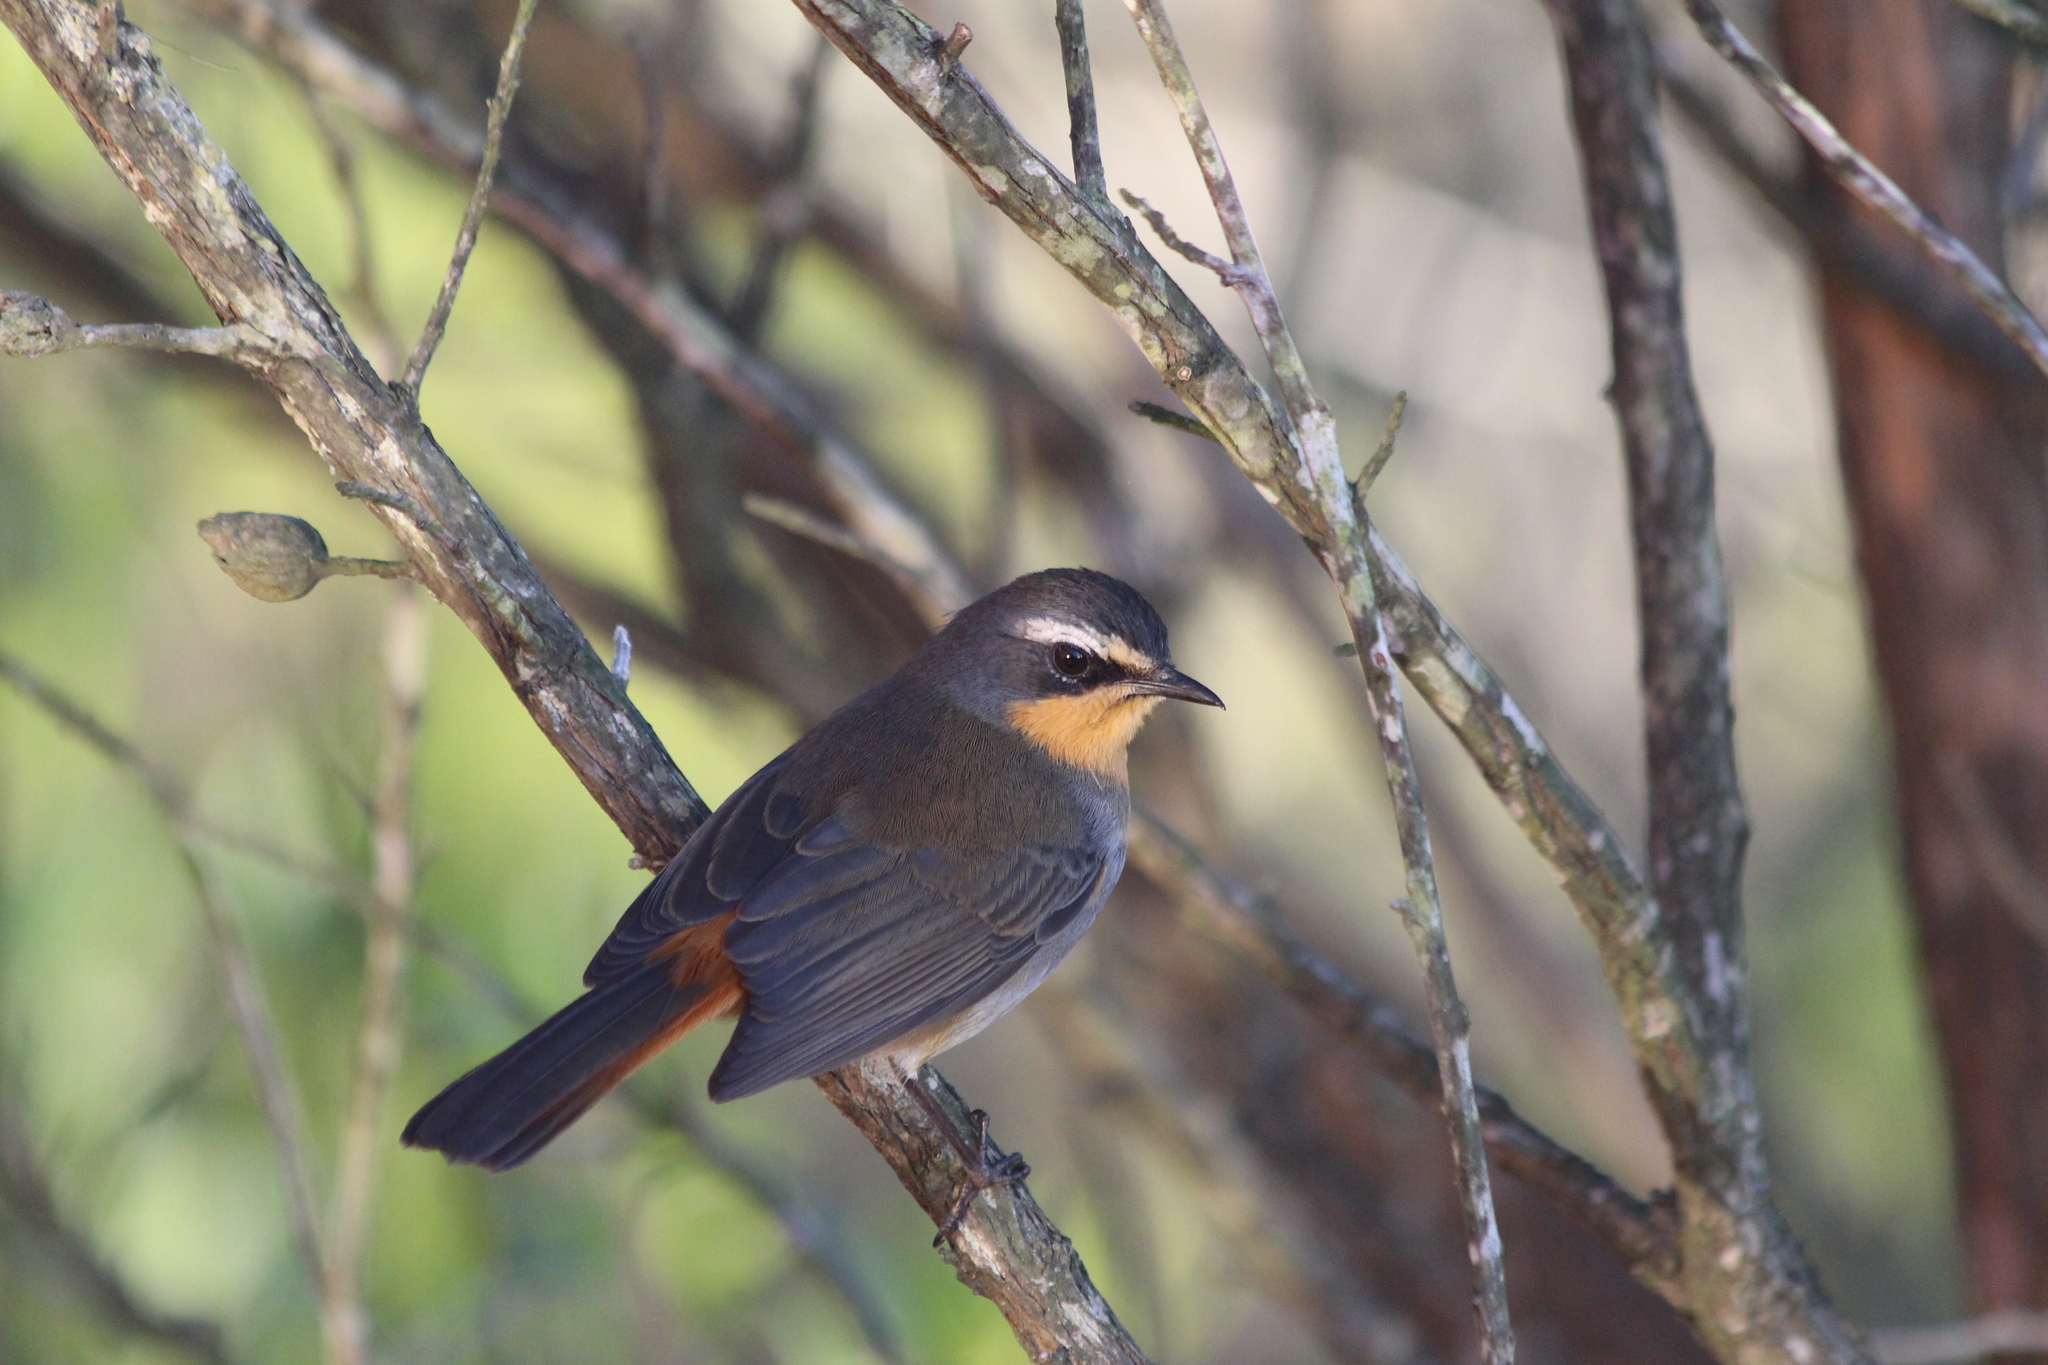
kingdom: Animalia
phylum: Chordata
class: Aves
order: Passeriformes
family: Muscicapidae
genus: Cossypha
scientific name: Cossypha caffra
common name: Cape robin-chat
